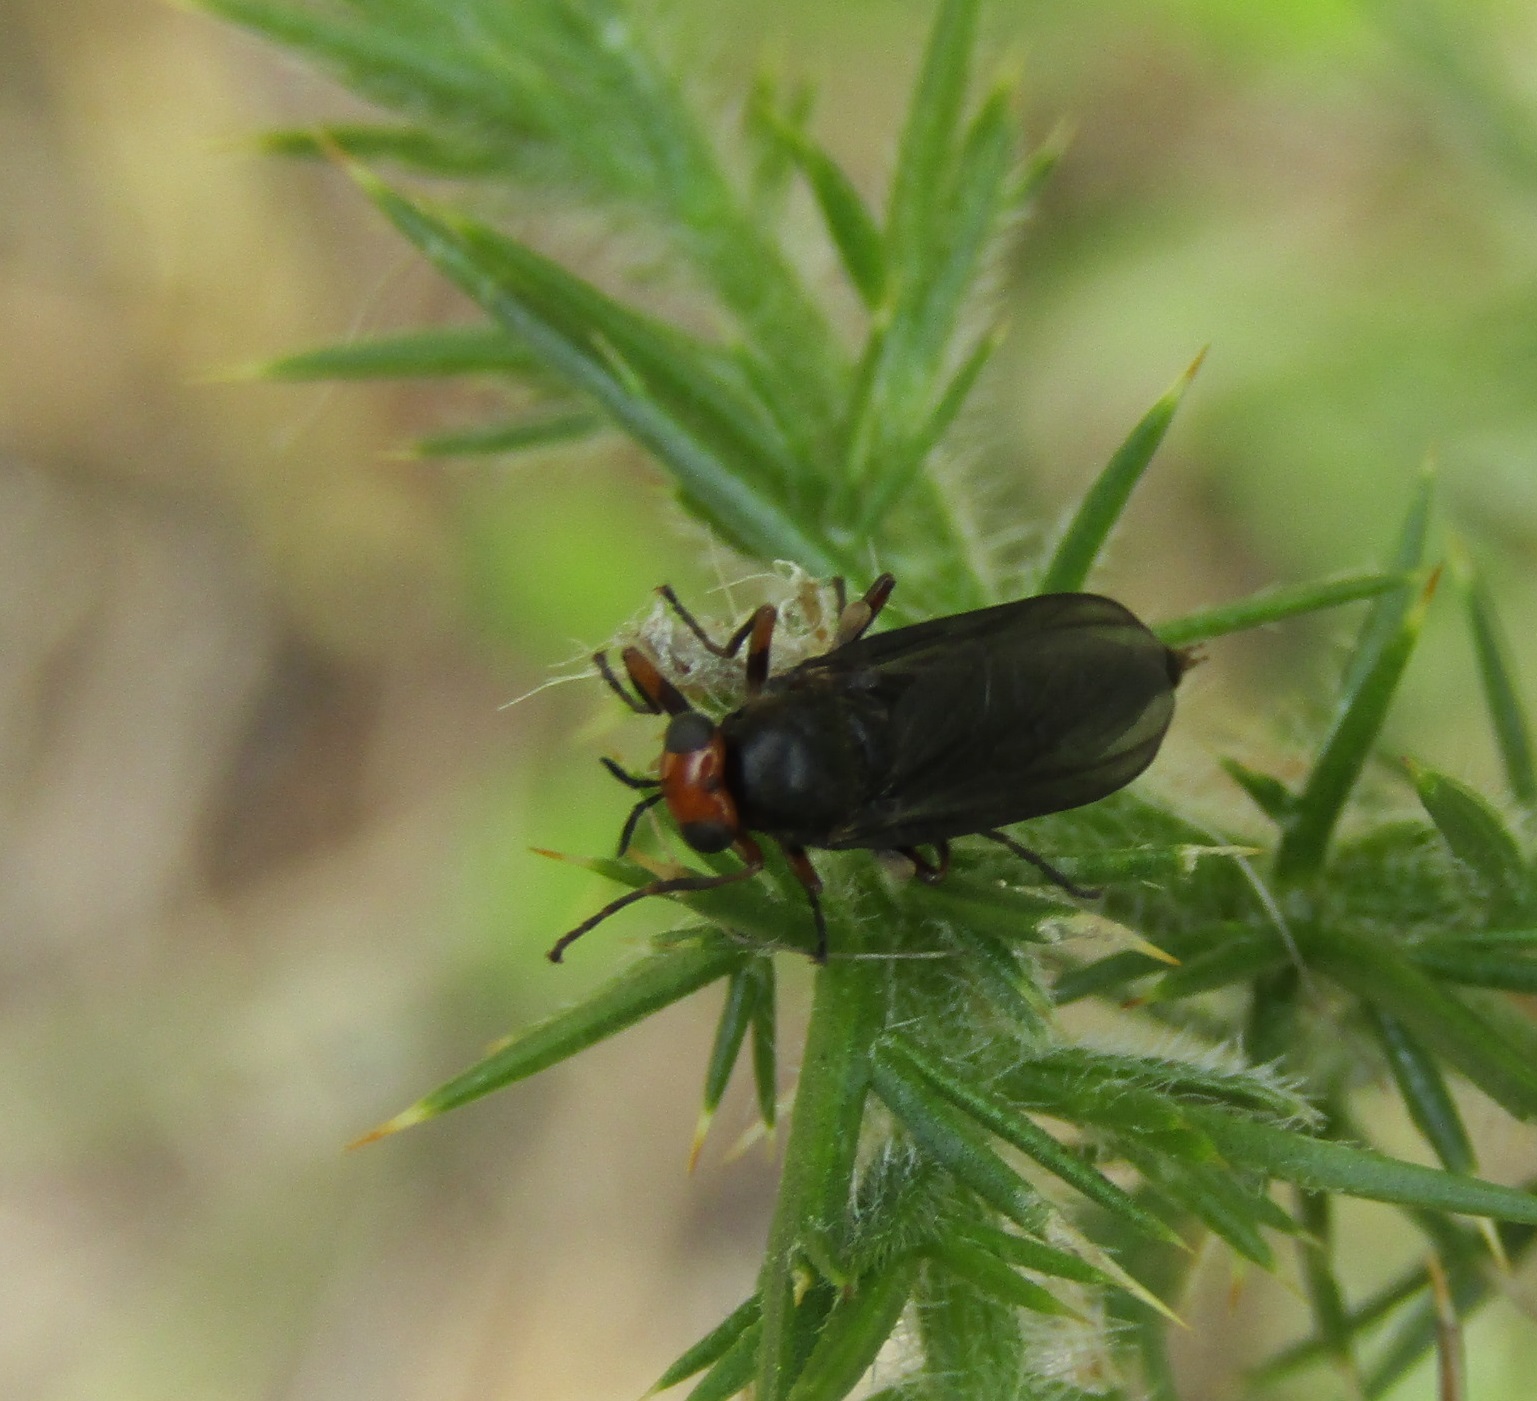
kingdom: Animalia
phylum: Arthropoda
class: Insecta
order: Diptera
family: Stratiomyidae
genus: Inopus
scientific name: Inopus rubriceps
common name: Soldier fly
